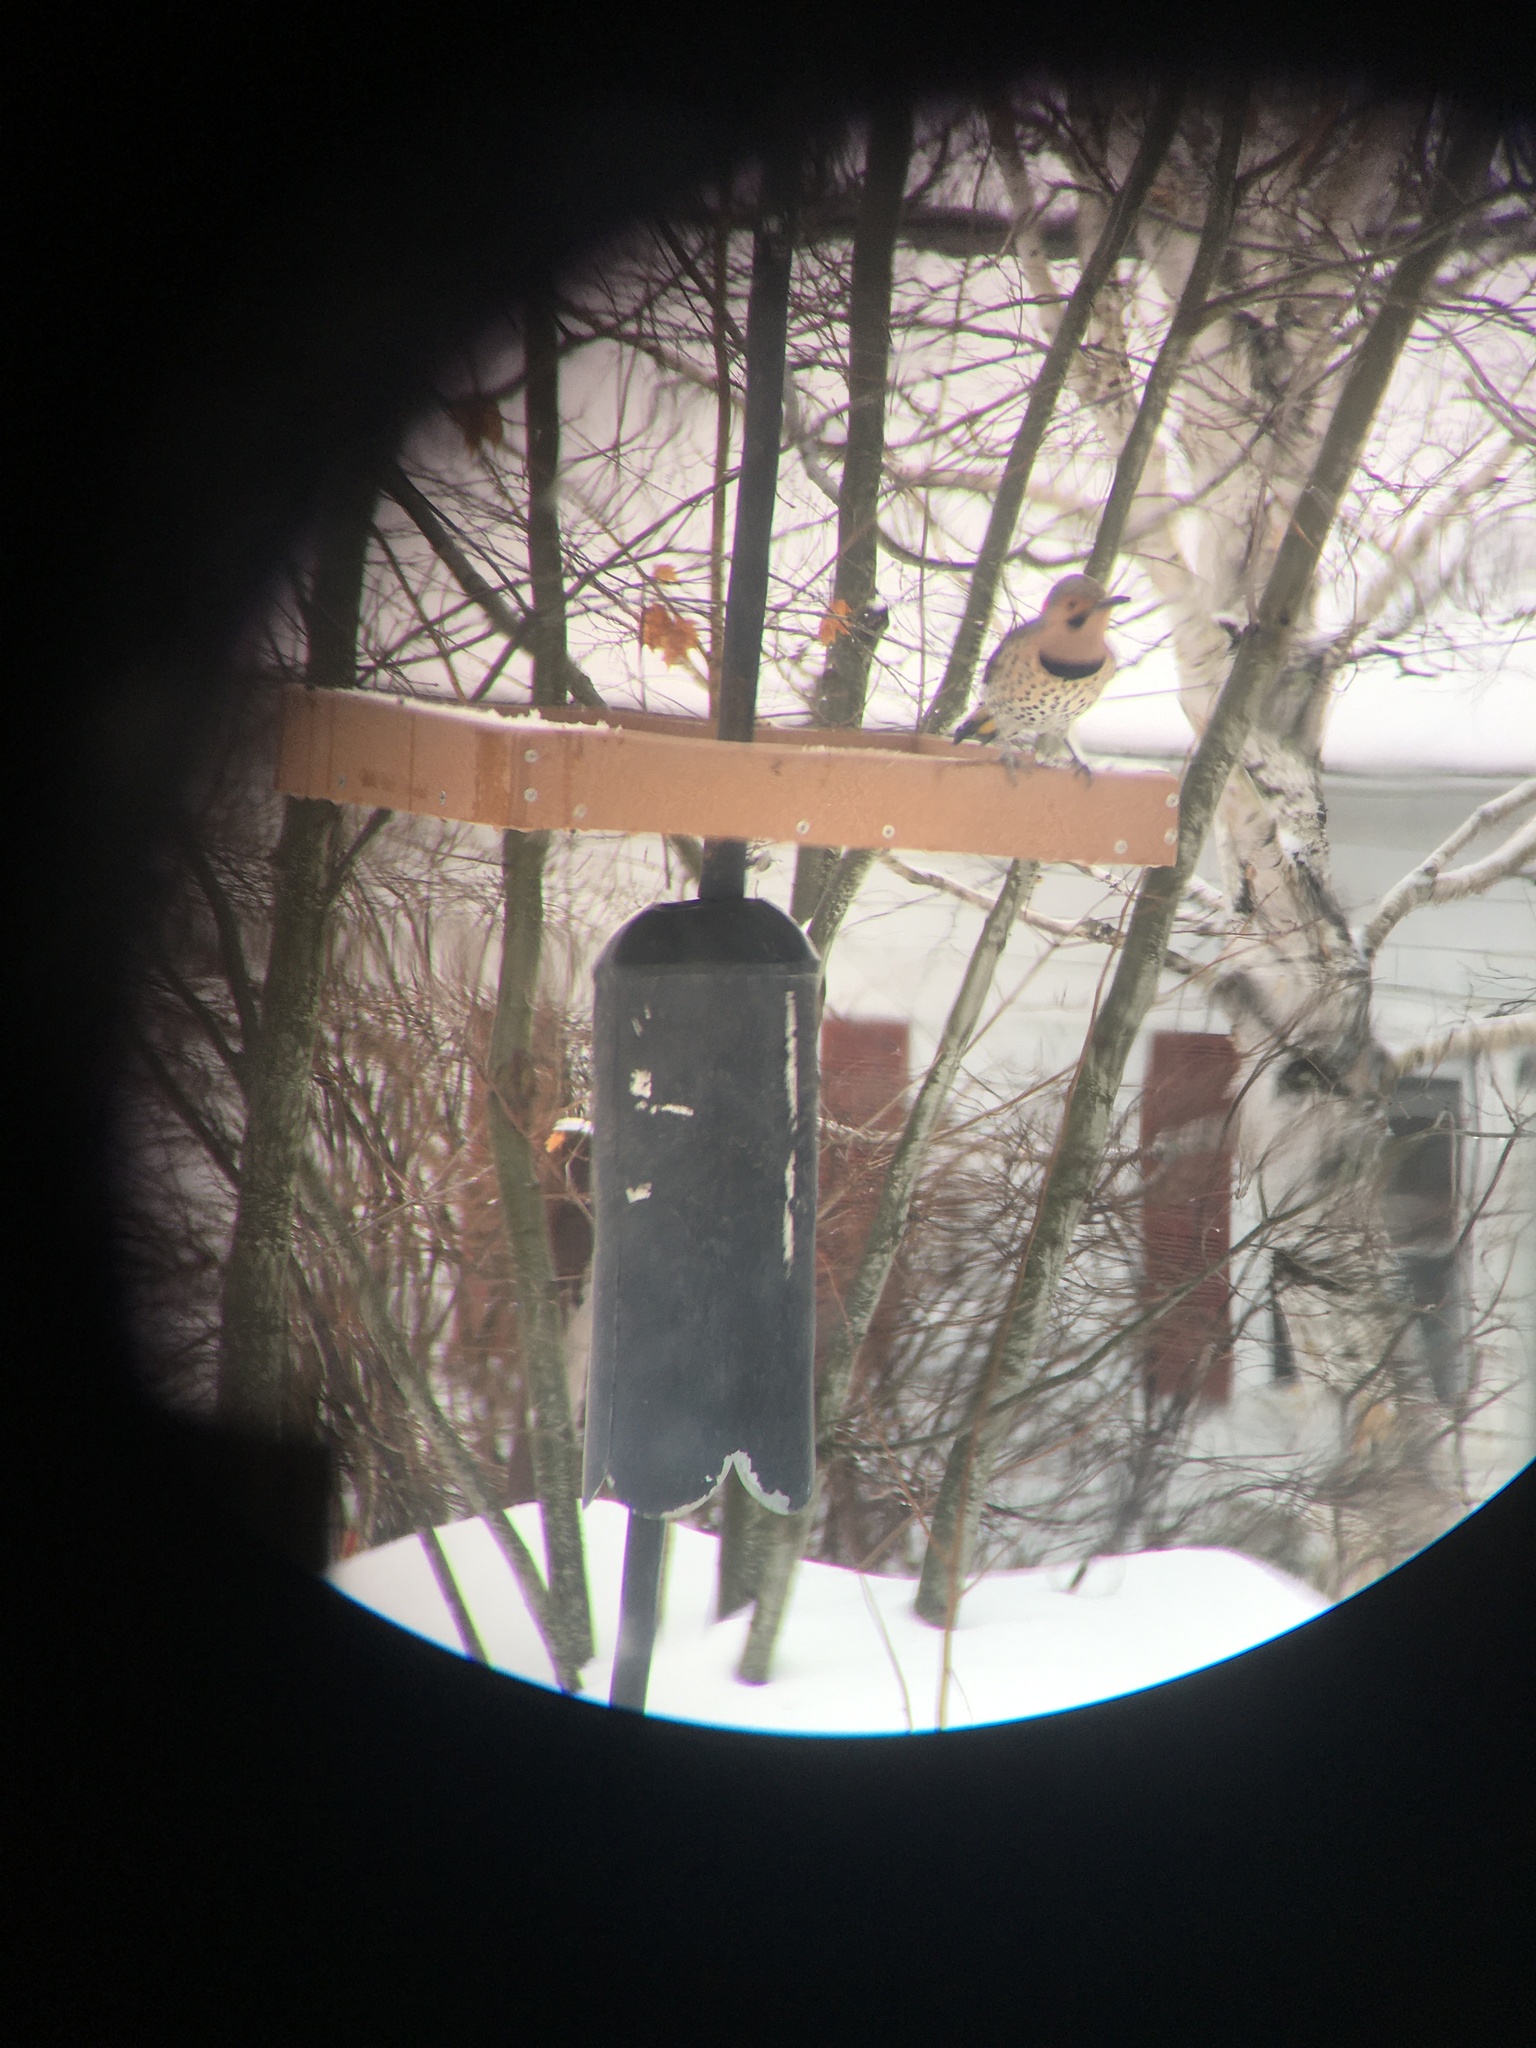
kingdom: Animalia
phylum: Chordata
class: Aves
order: Piciformes
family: Picidae
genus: Colaptes
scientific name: Colaptes auratus
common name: Northern flicker
